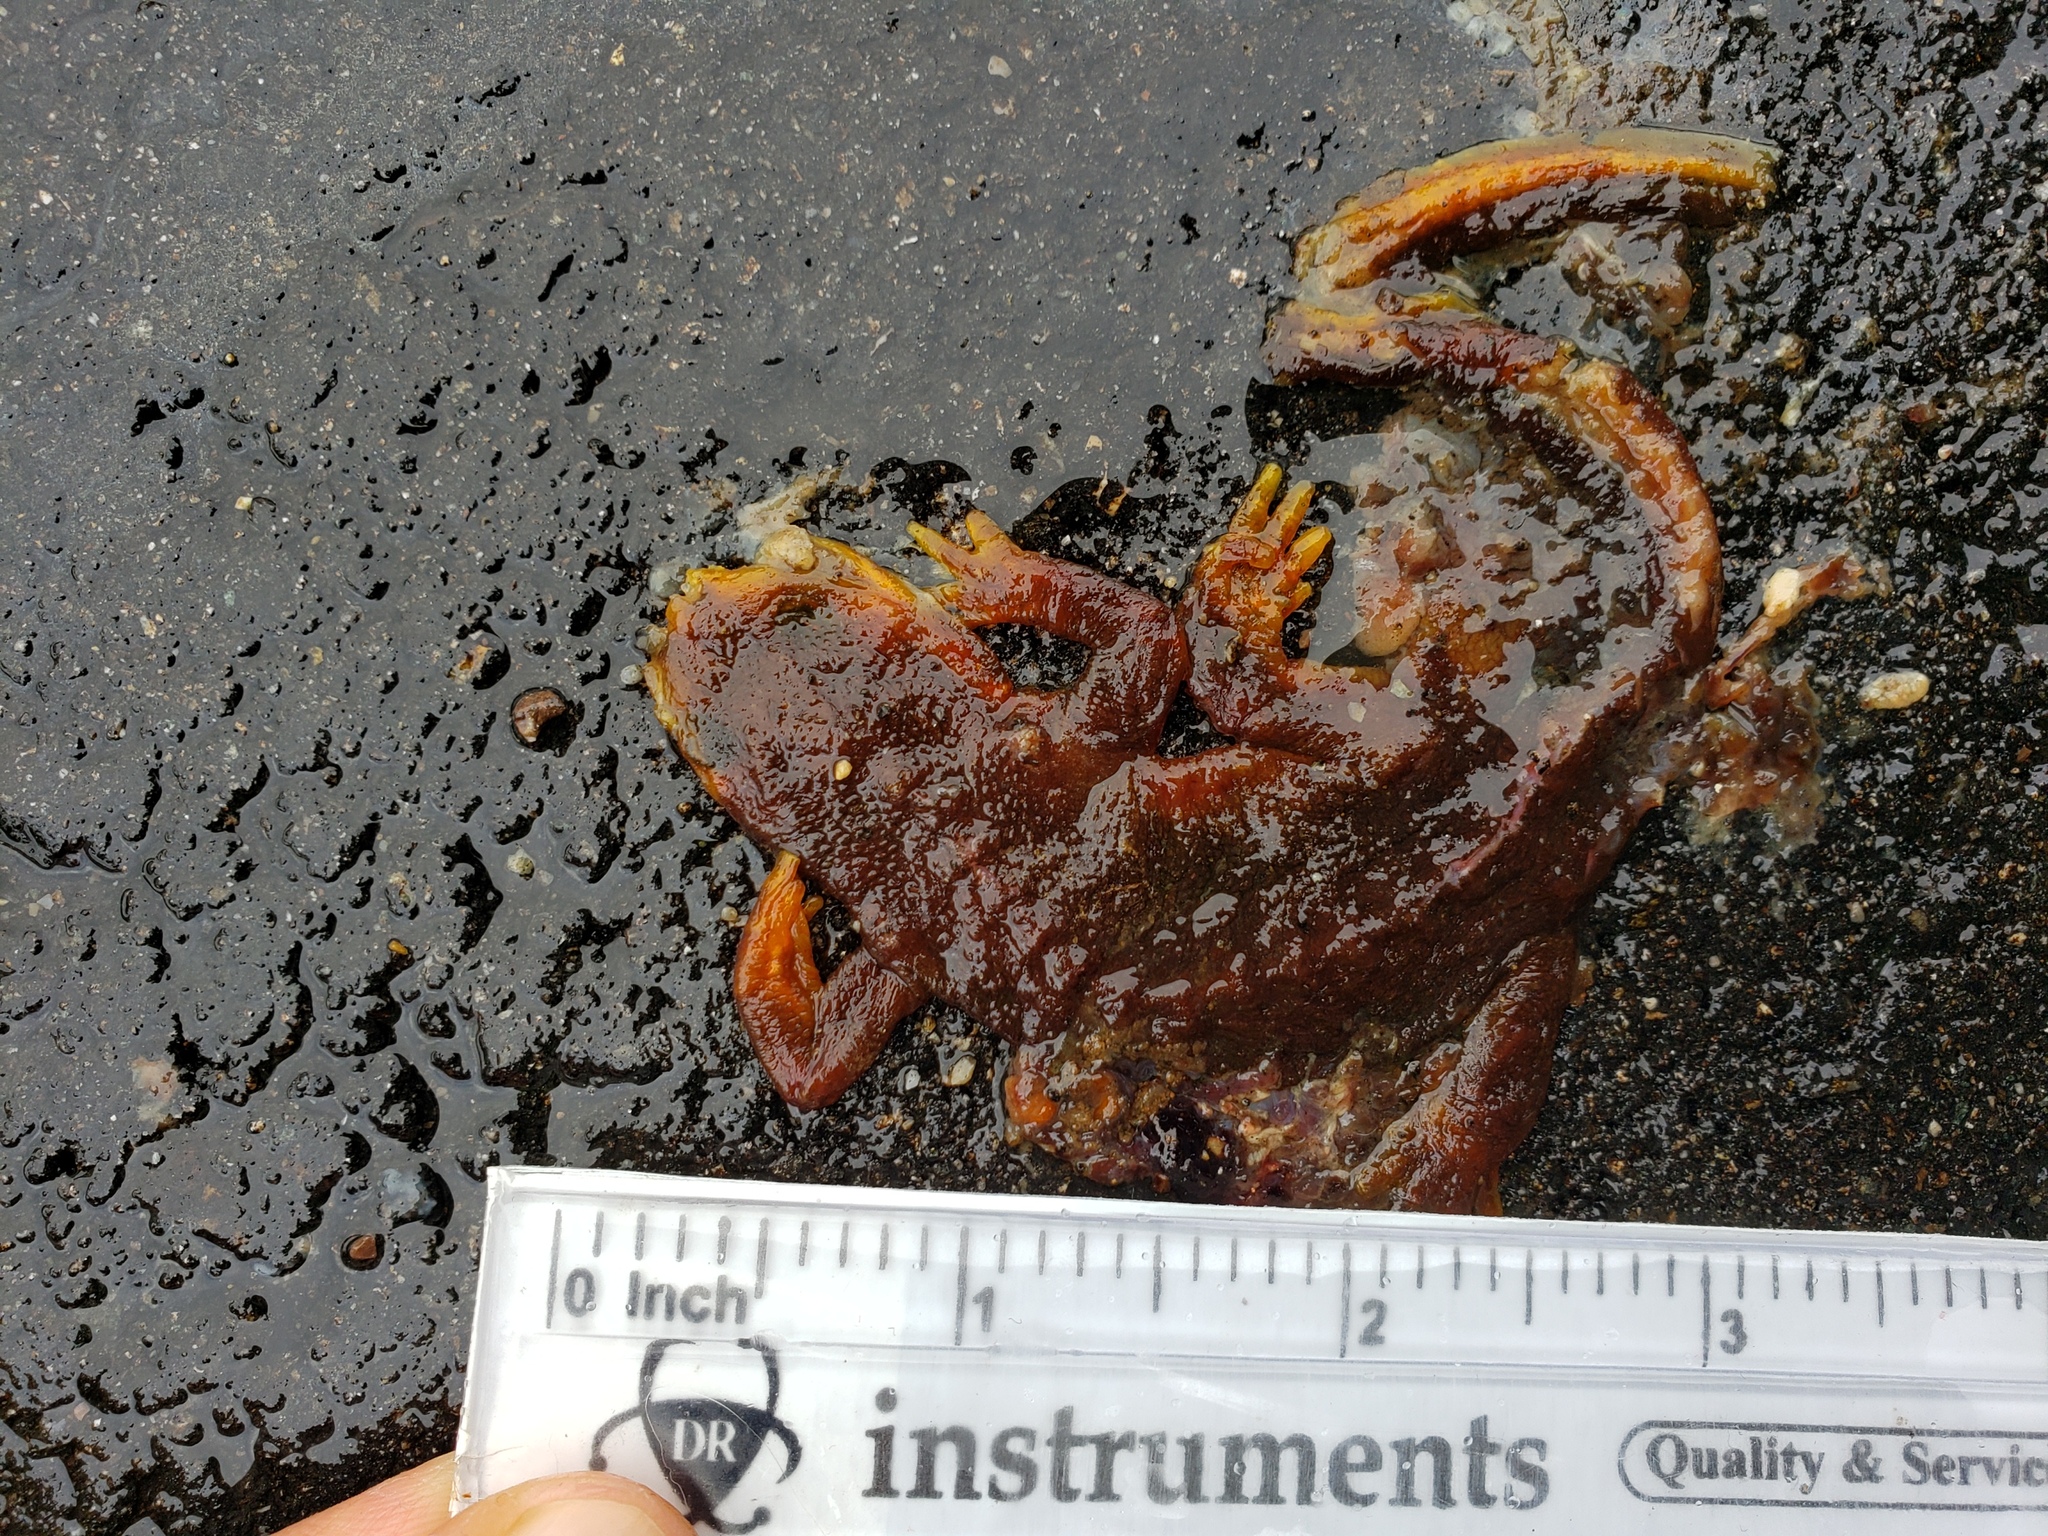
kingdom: Animalia
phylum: Chordata
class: Amphibia
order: Caudata
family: Salamandridae
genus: Taricha
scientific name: Taricha
